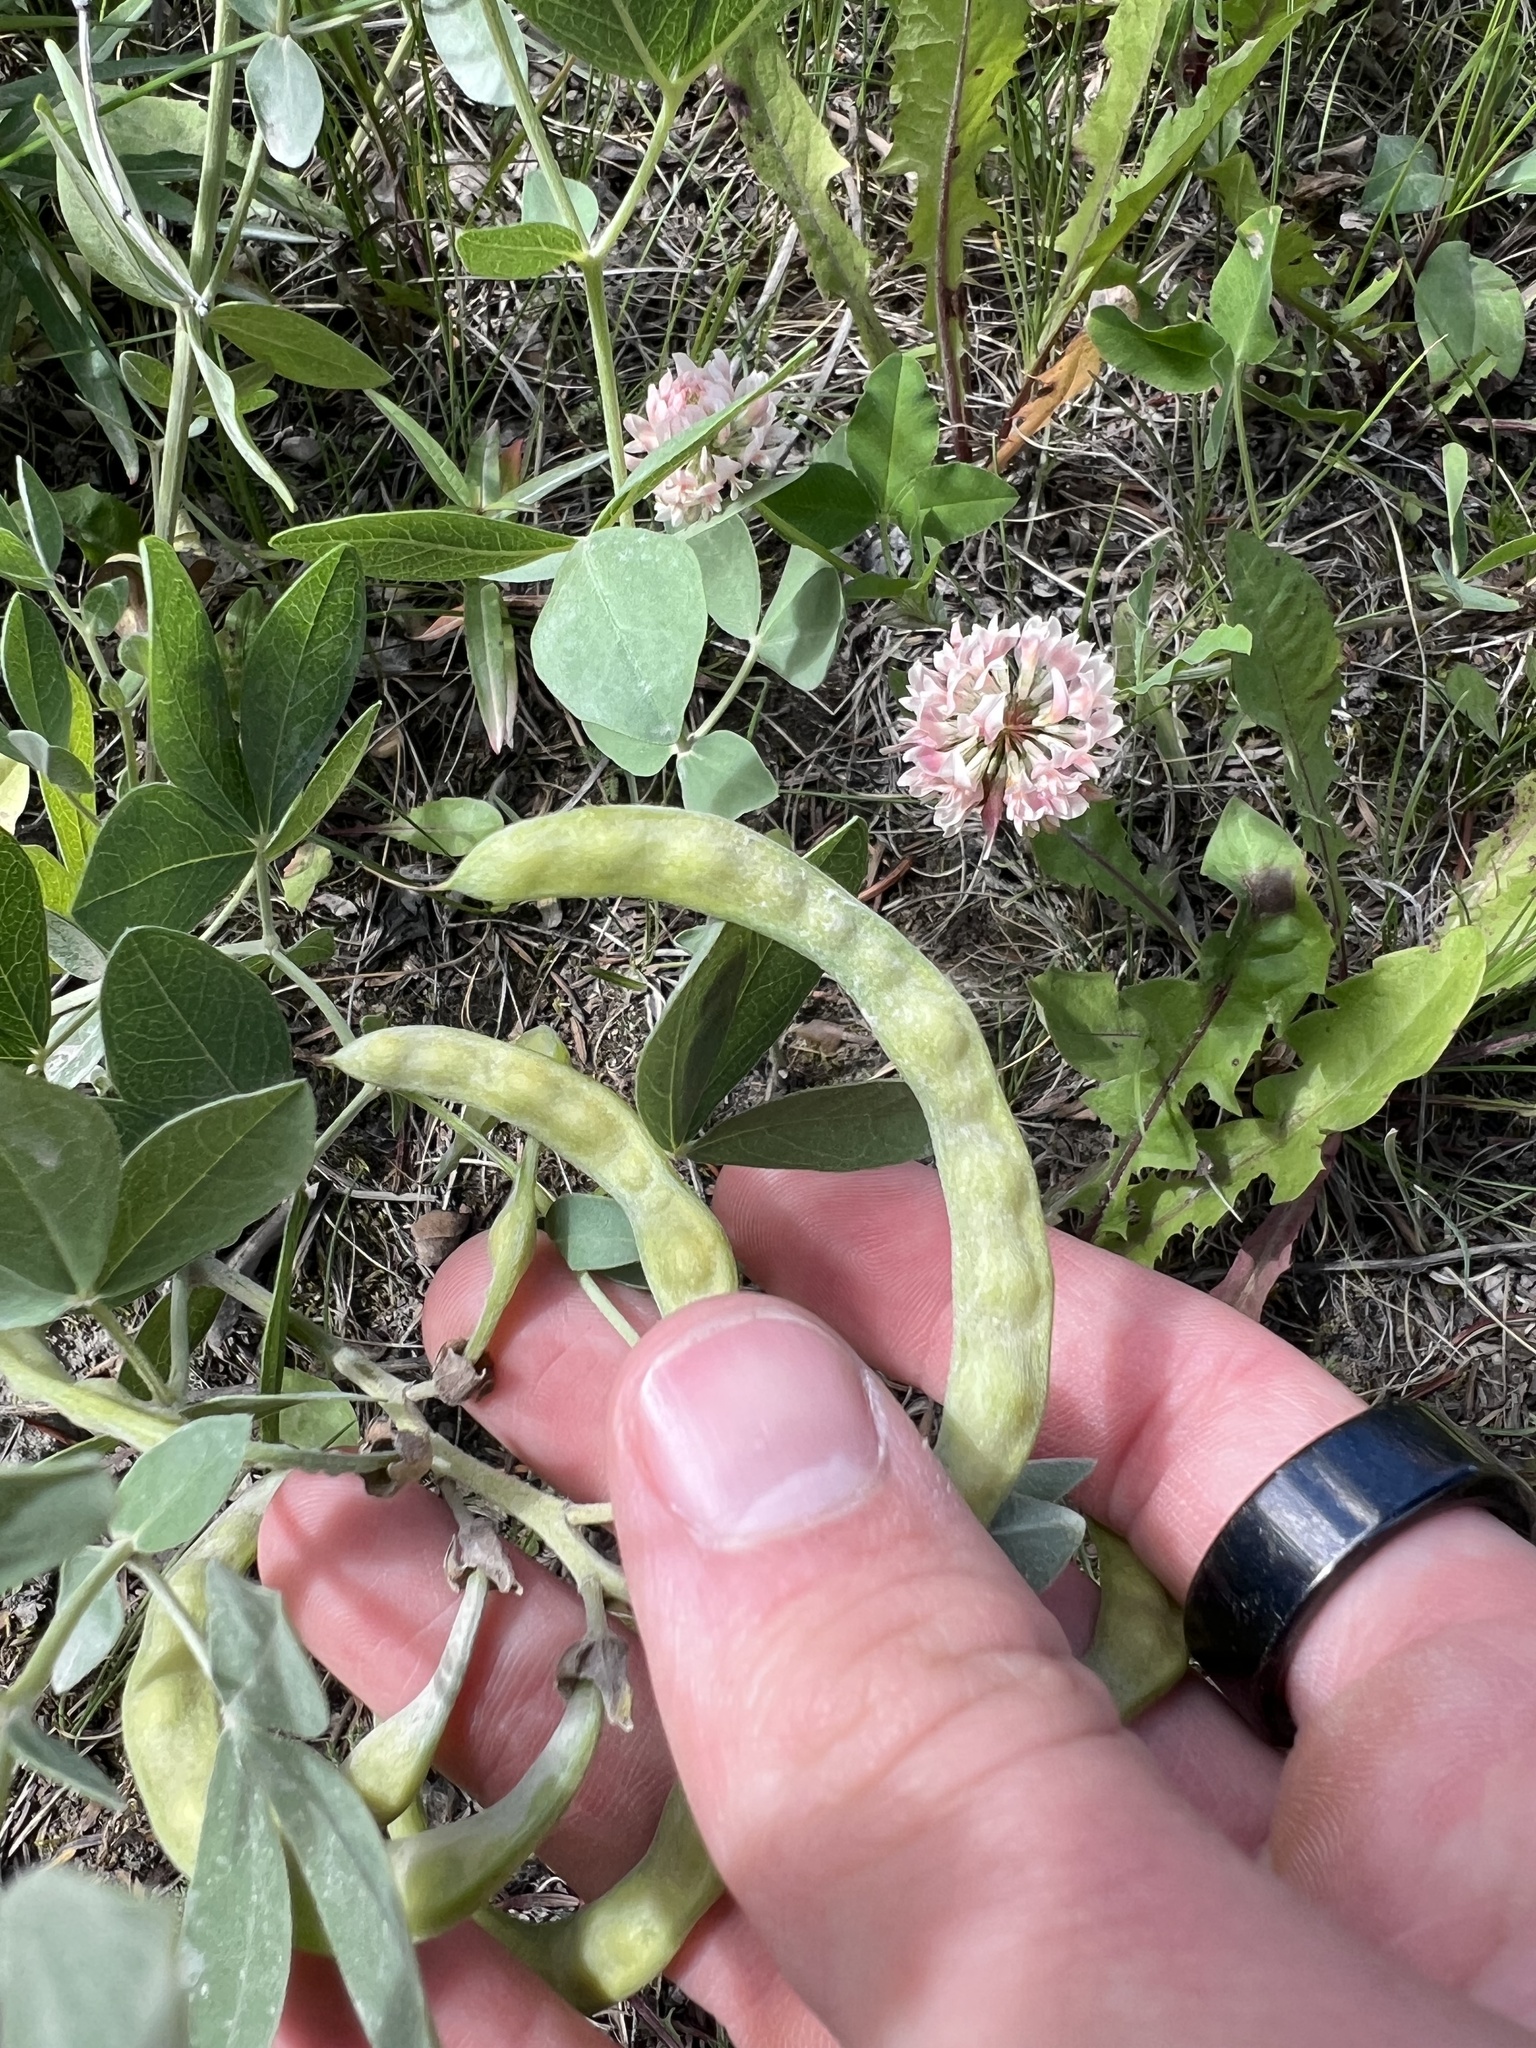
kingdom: Plantae
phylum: Tracheophyta
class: Magnoliopsida
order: Fabales
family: Fabaceae
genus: Thermopsis
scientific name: Thermopsis rhombifolia
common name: Circle-pod-pea
